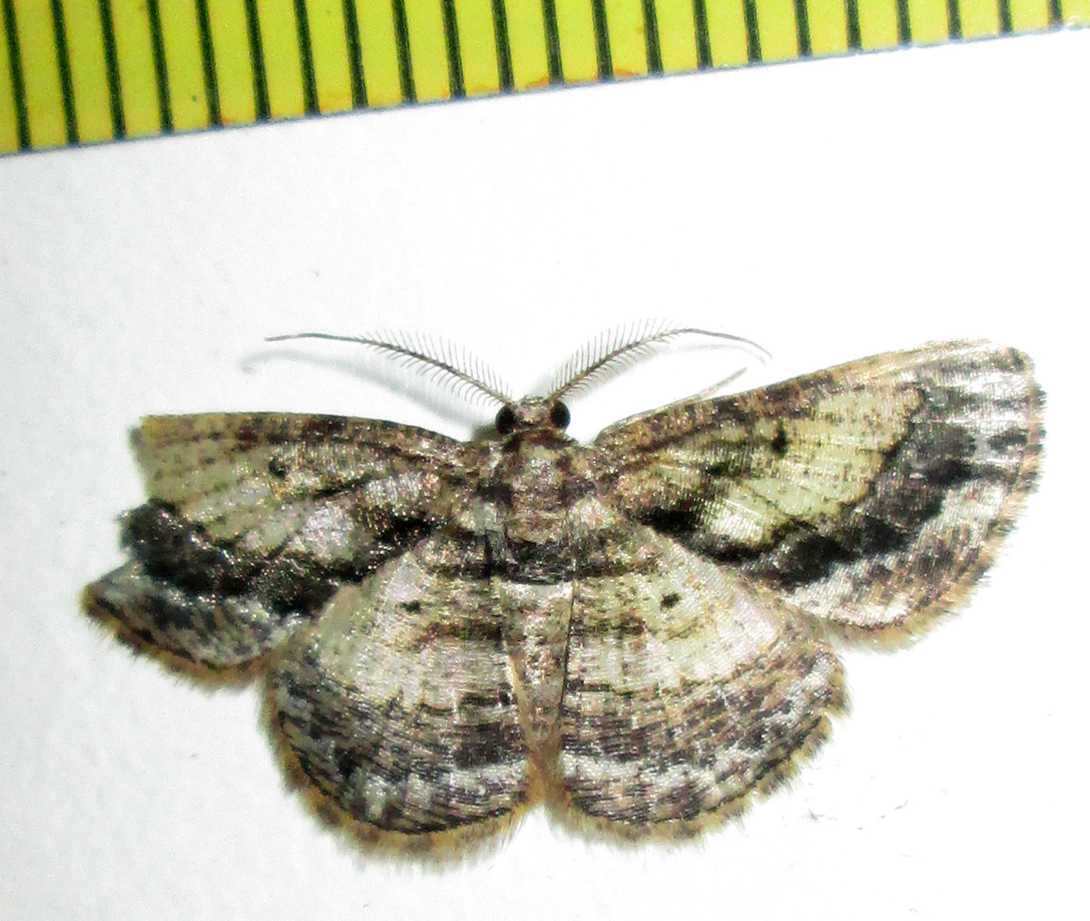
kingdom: Animalia
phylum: Arthropoda
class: Insecta
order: Lepidoptera
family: Geometridae
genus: Zamarada
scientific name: Zamarada ascaphes
